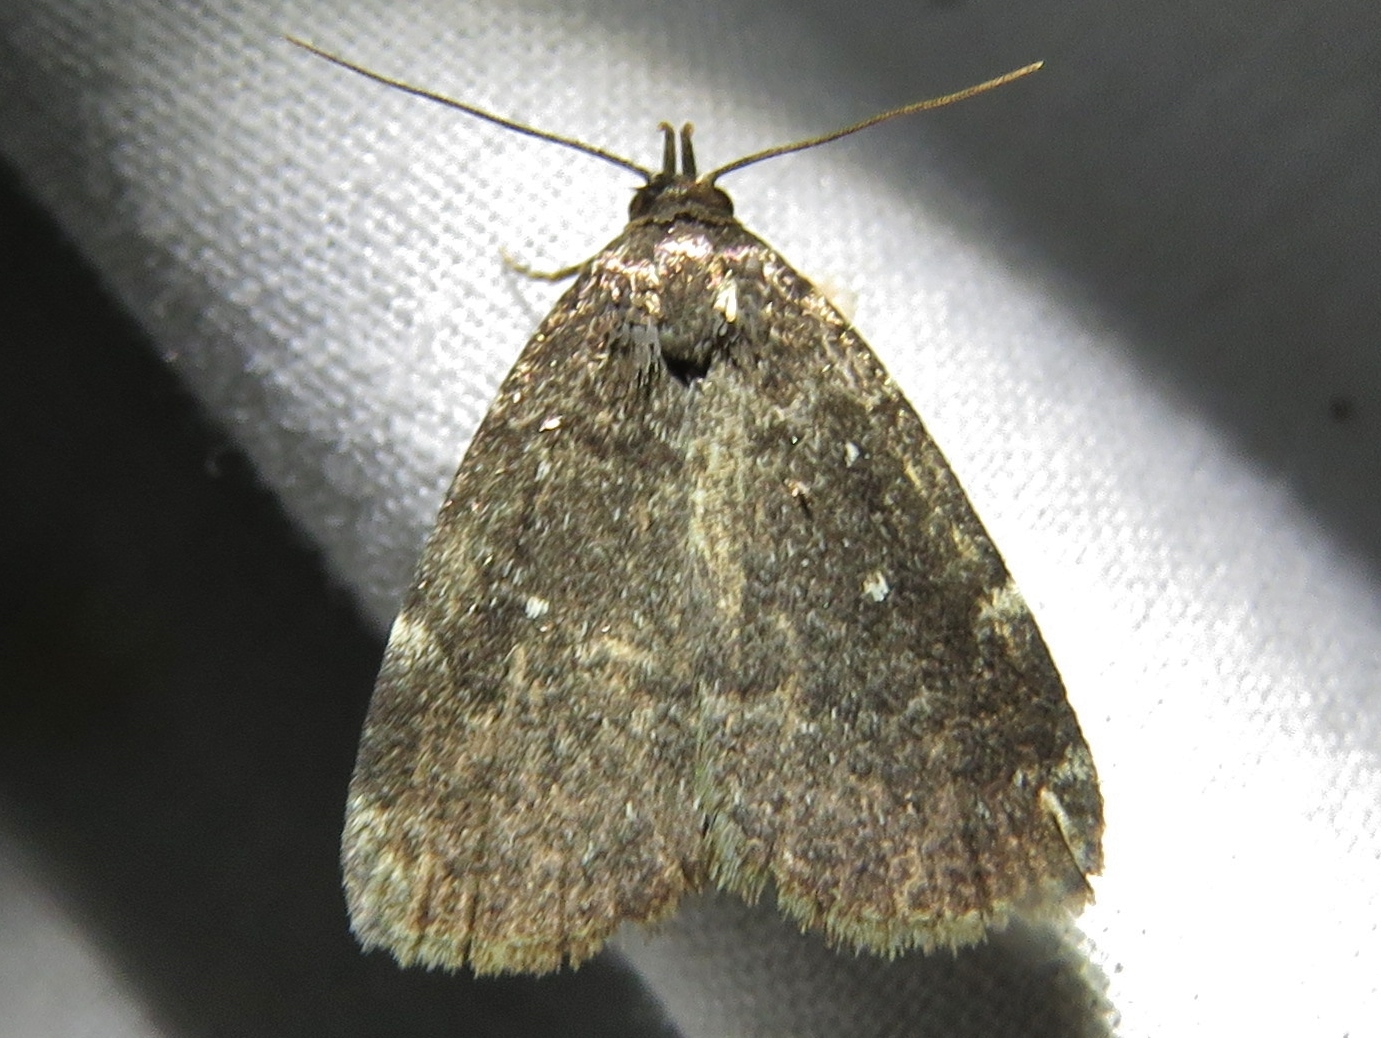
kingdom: Animalia
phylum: Arthropoda
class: Insecta
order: Lepidoptera
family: Erebidae
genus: Idia
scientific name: Idia julia
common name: Julia's idia moth
